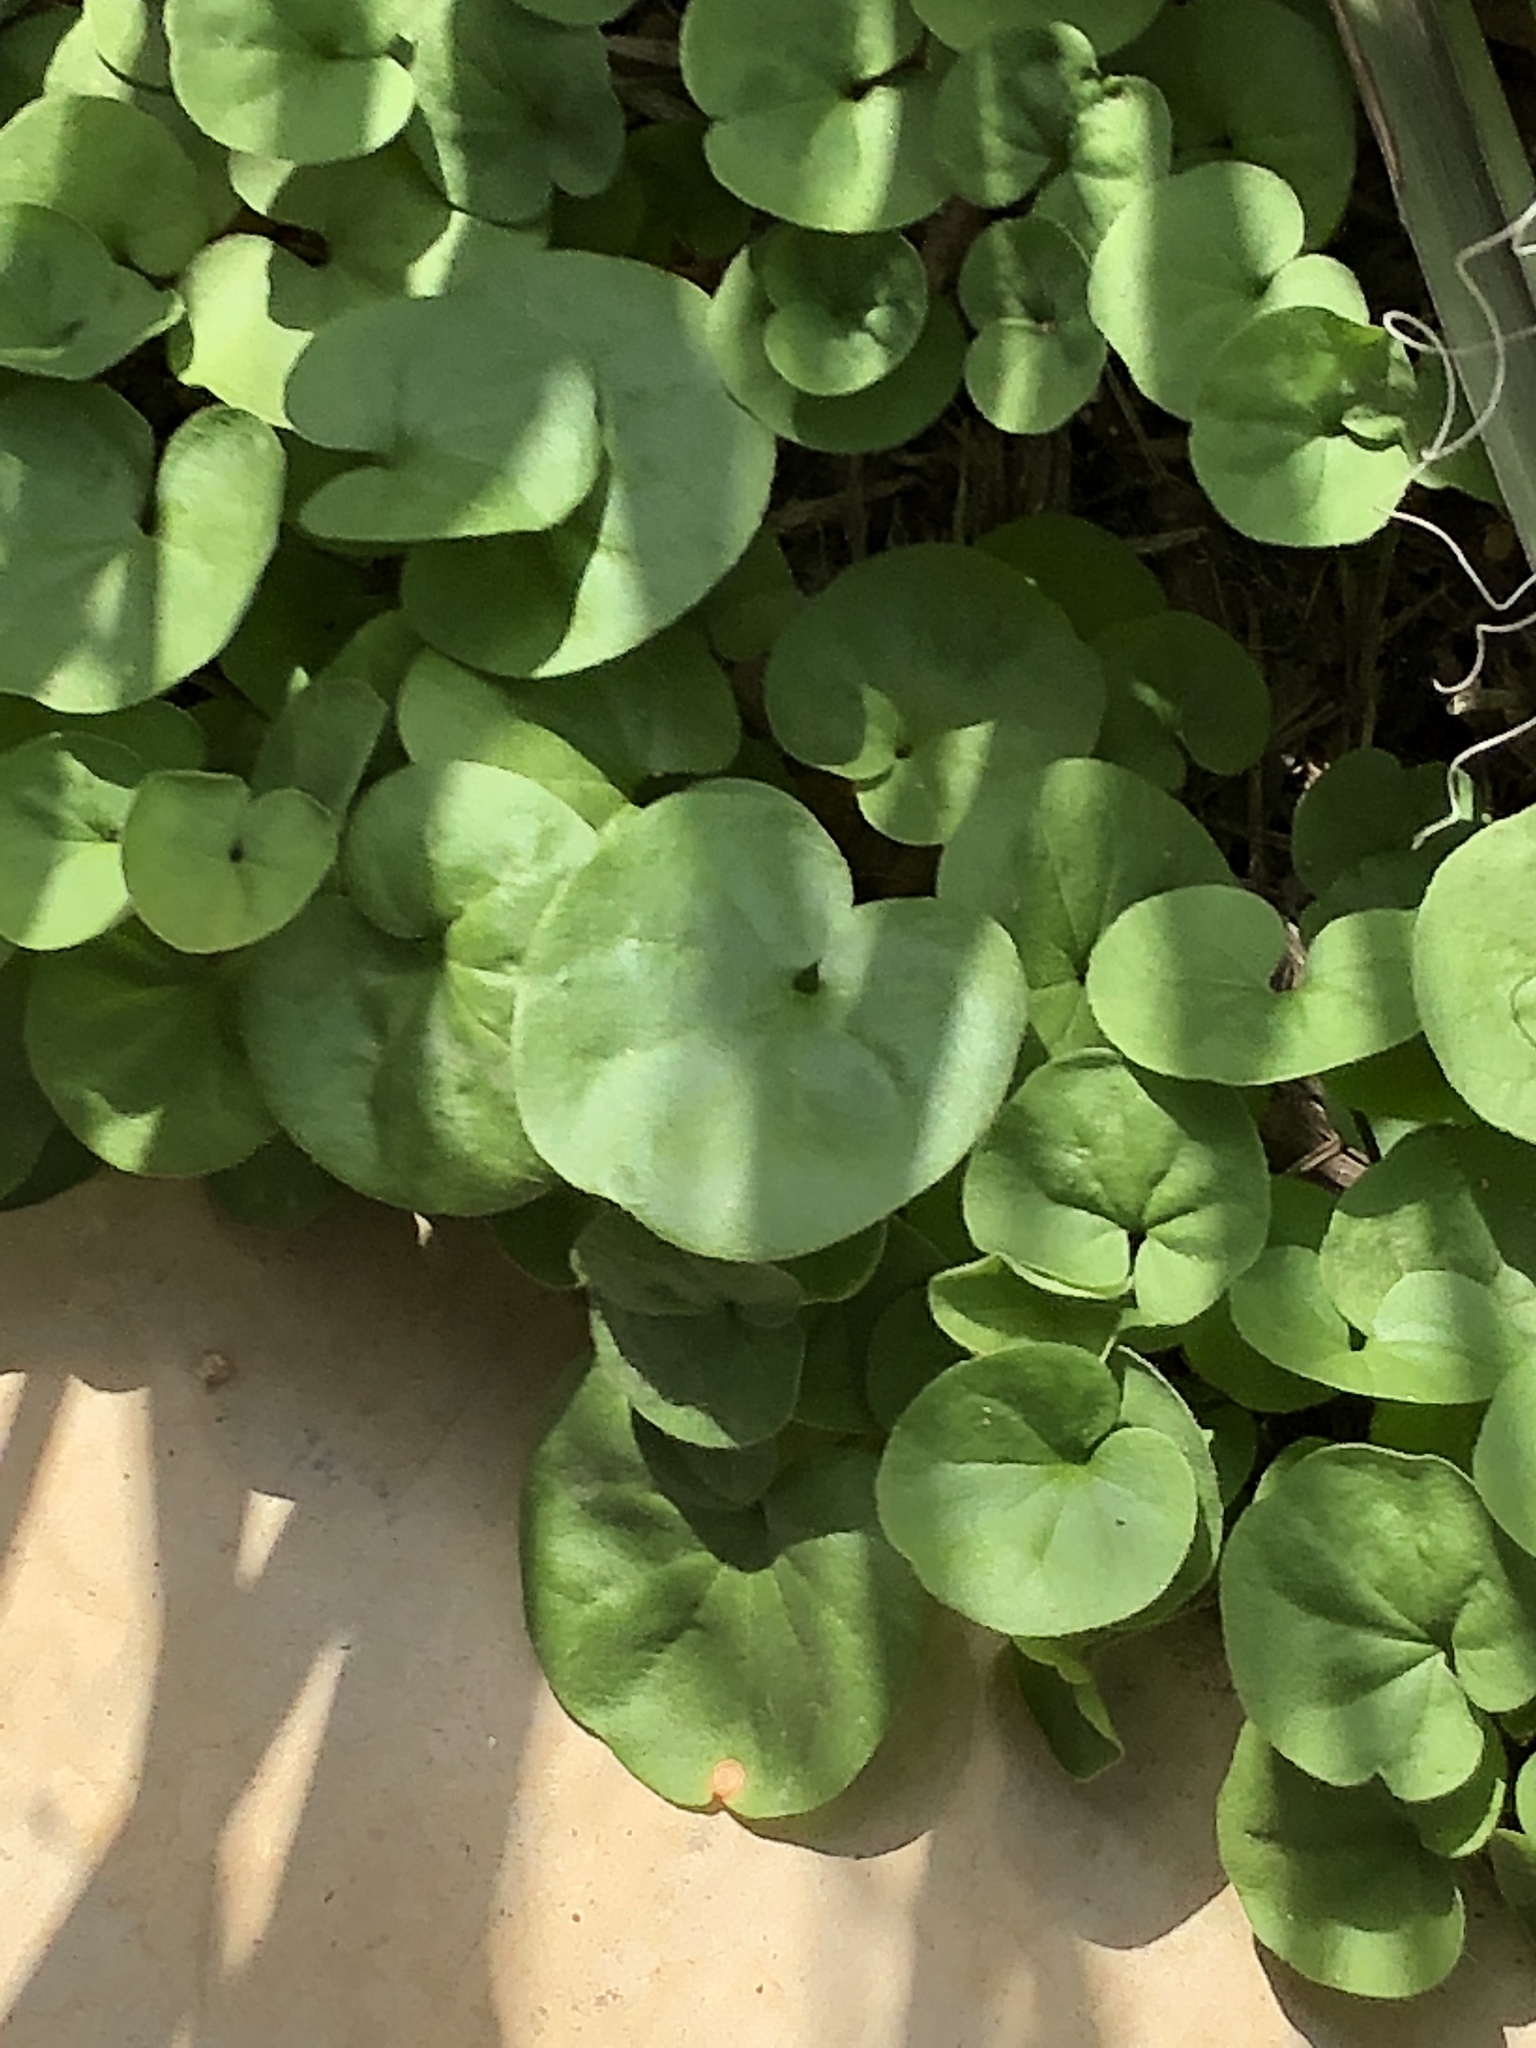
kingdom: Plantae
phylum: Tracheophyta
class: Magnoliopsida
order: Solanales
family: Convolvulaceae
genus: Dichondra
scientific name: Dichondra carolinensis
